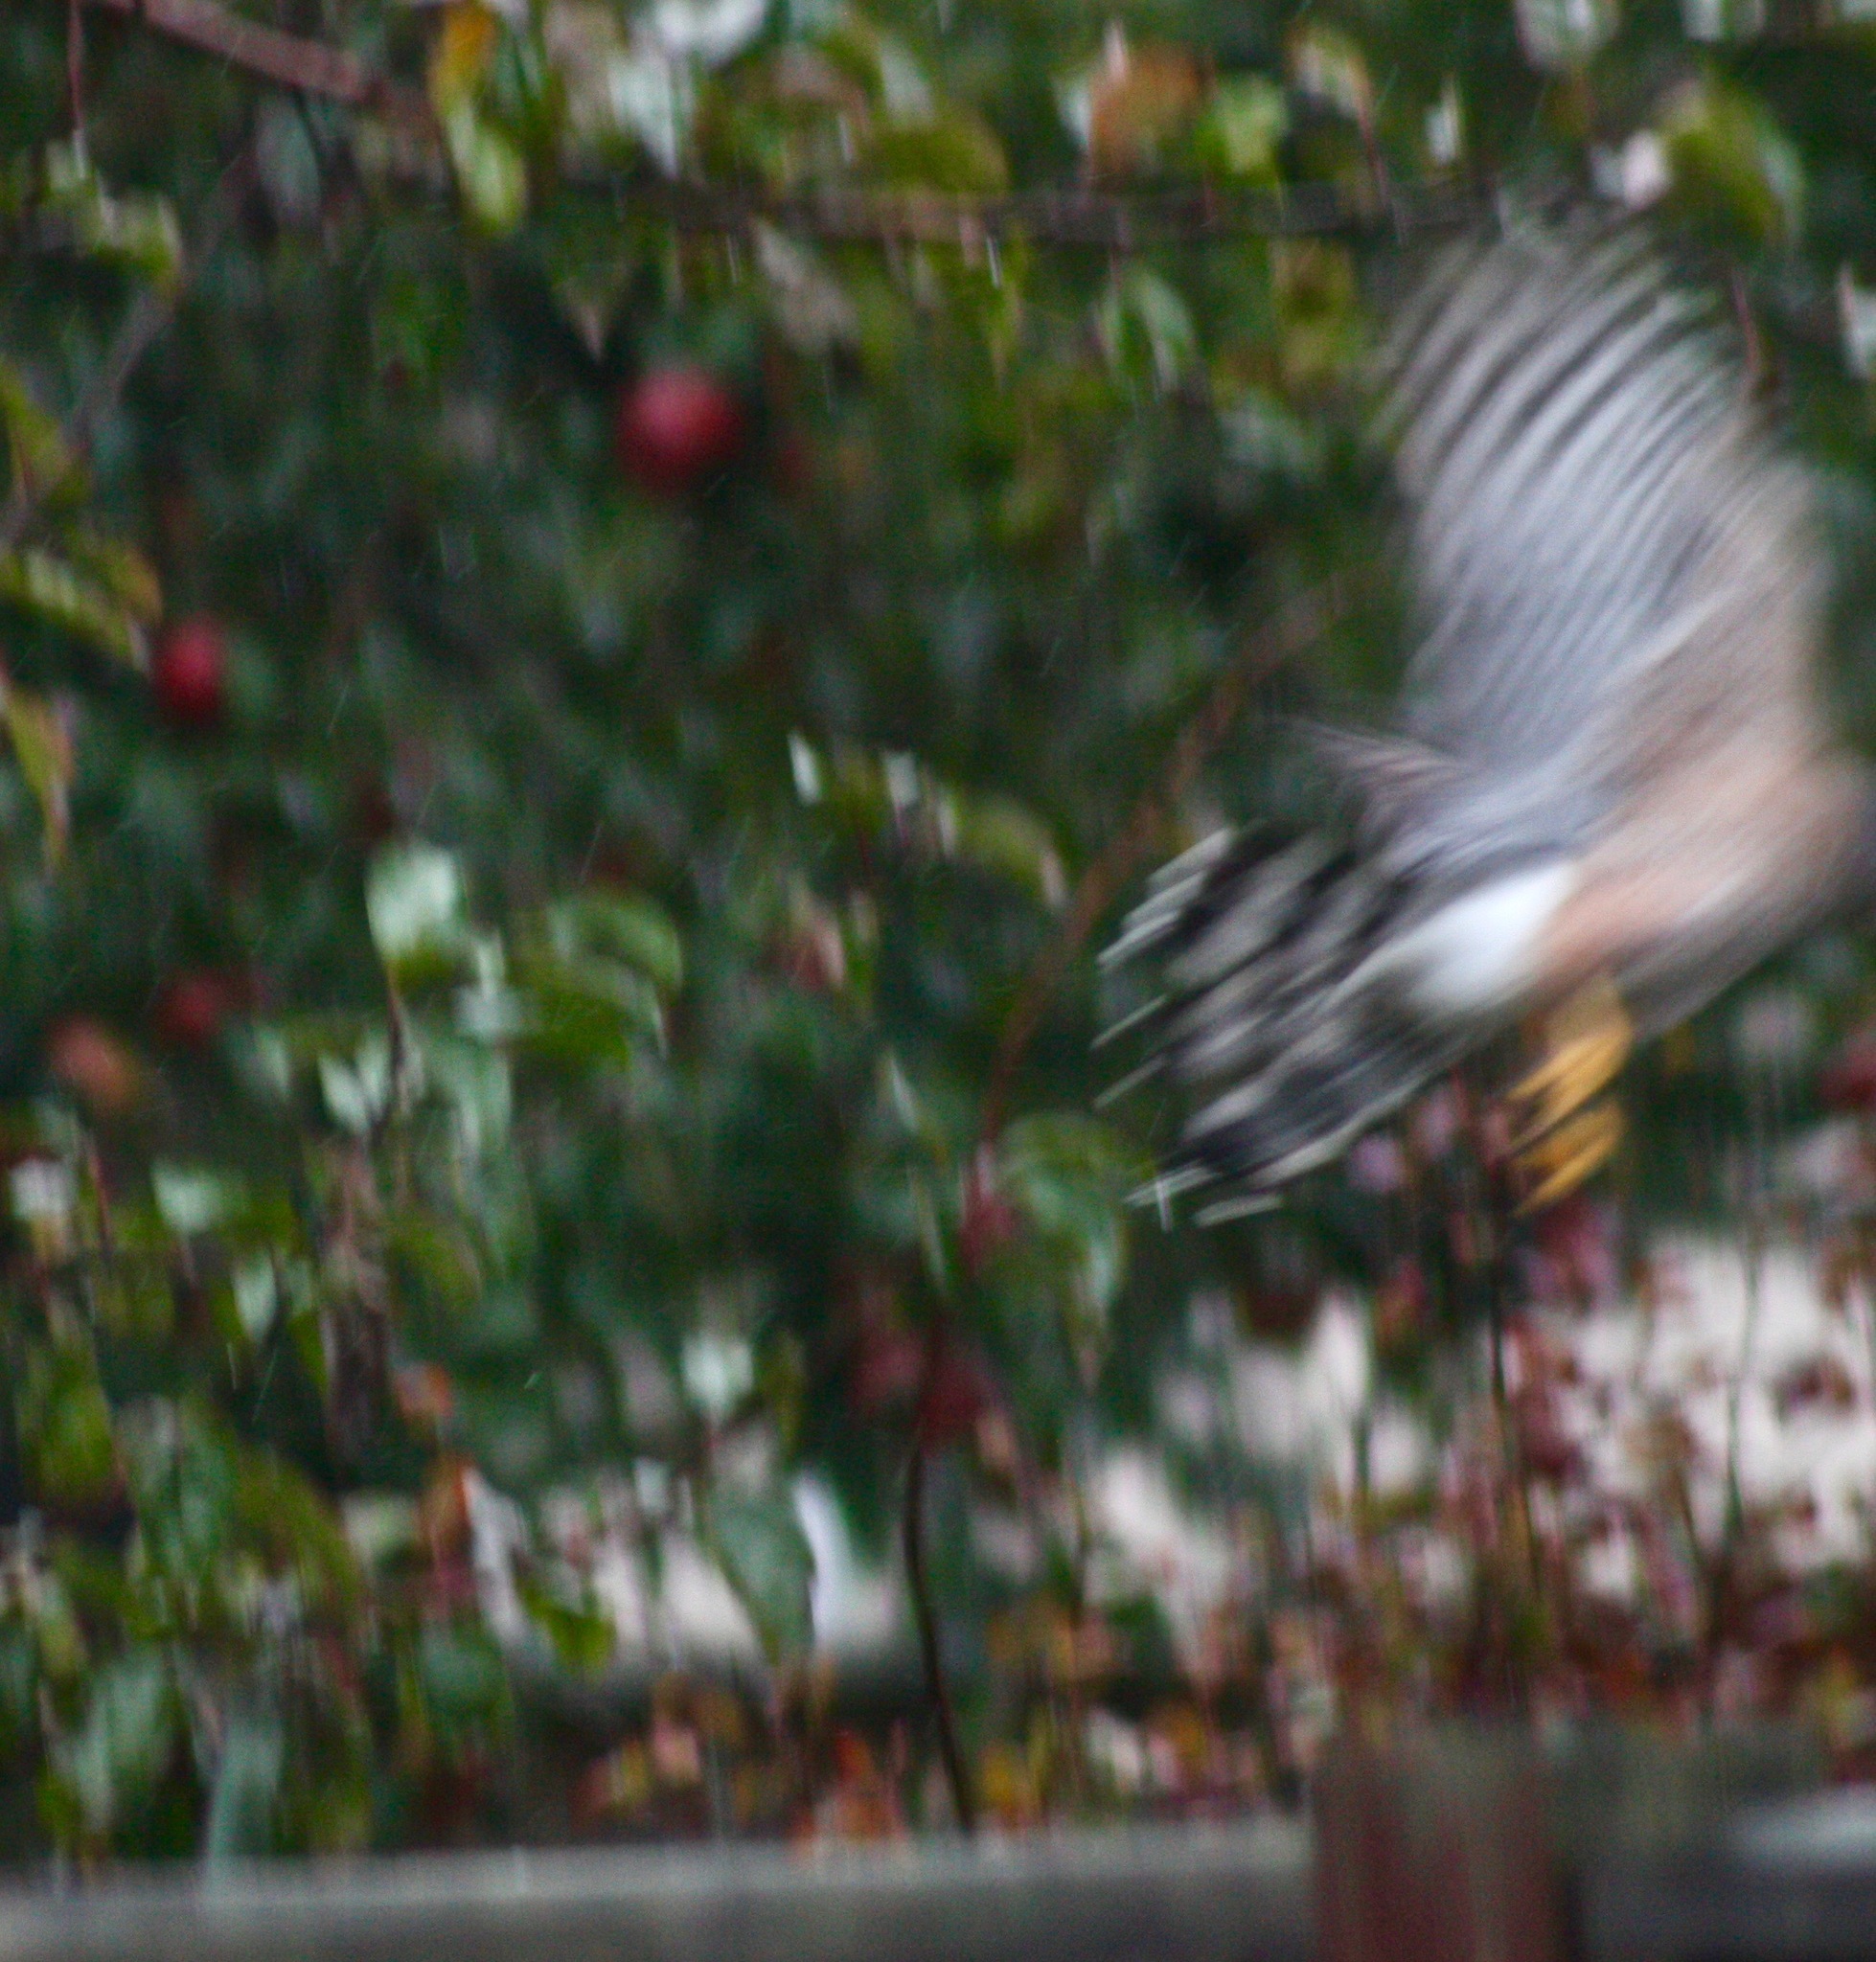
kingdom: Animalia
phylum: Chordata
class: Aves
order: Accipitriformes
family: Accipitridae
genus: Accipiter
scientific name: Accipiter cooperii
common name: Cooper's hawk
